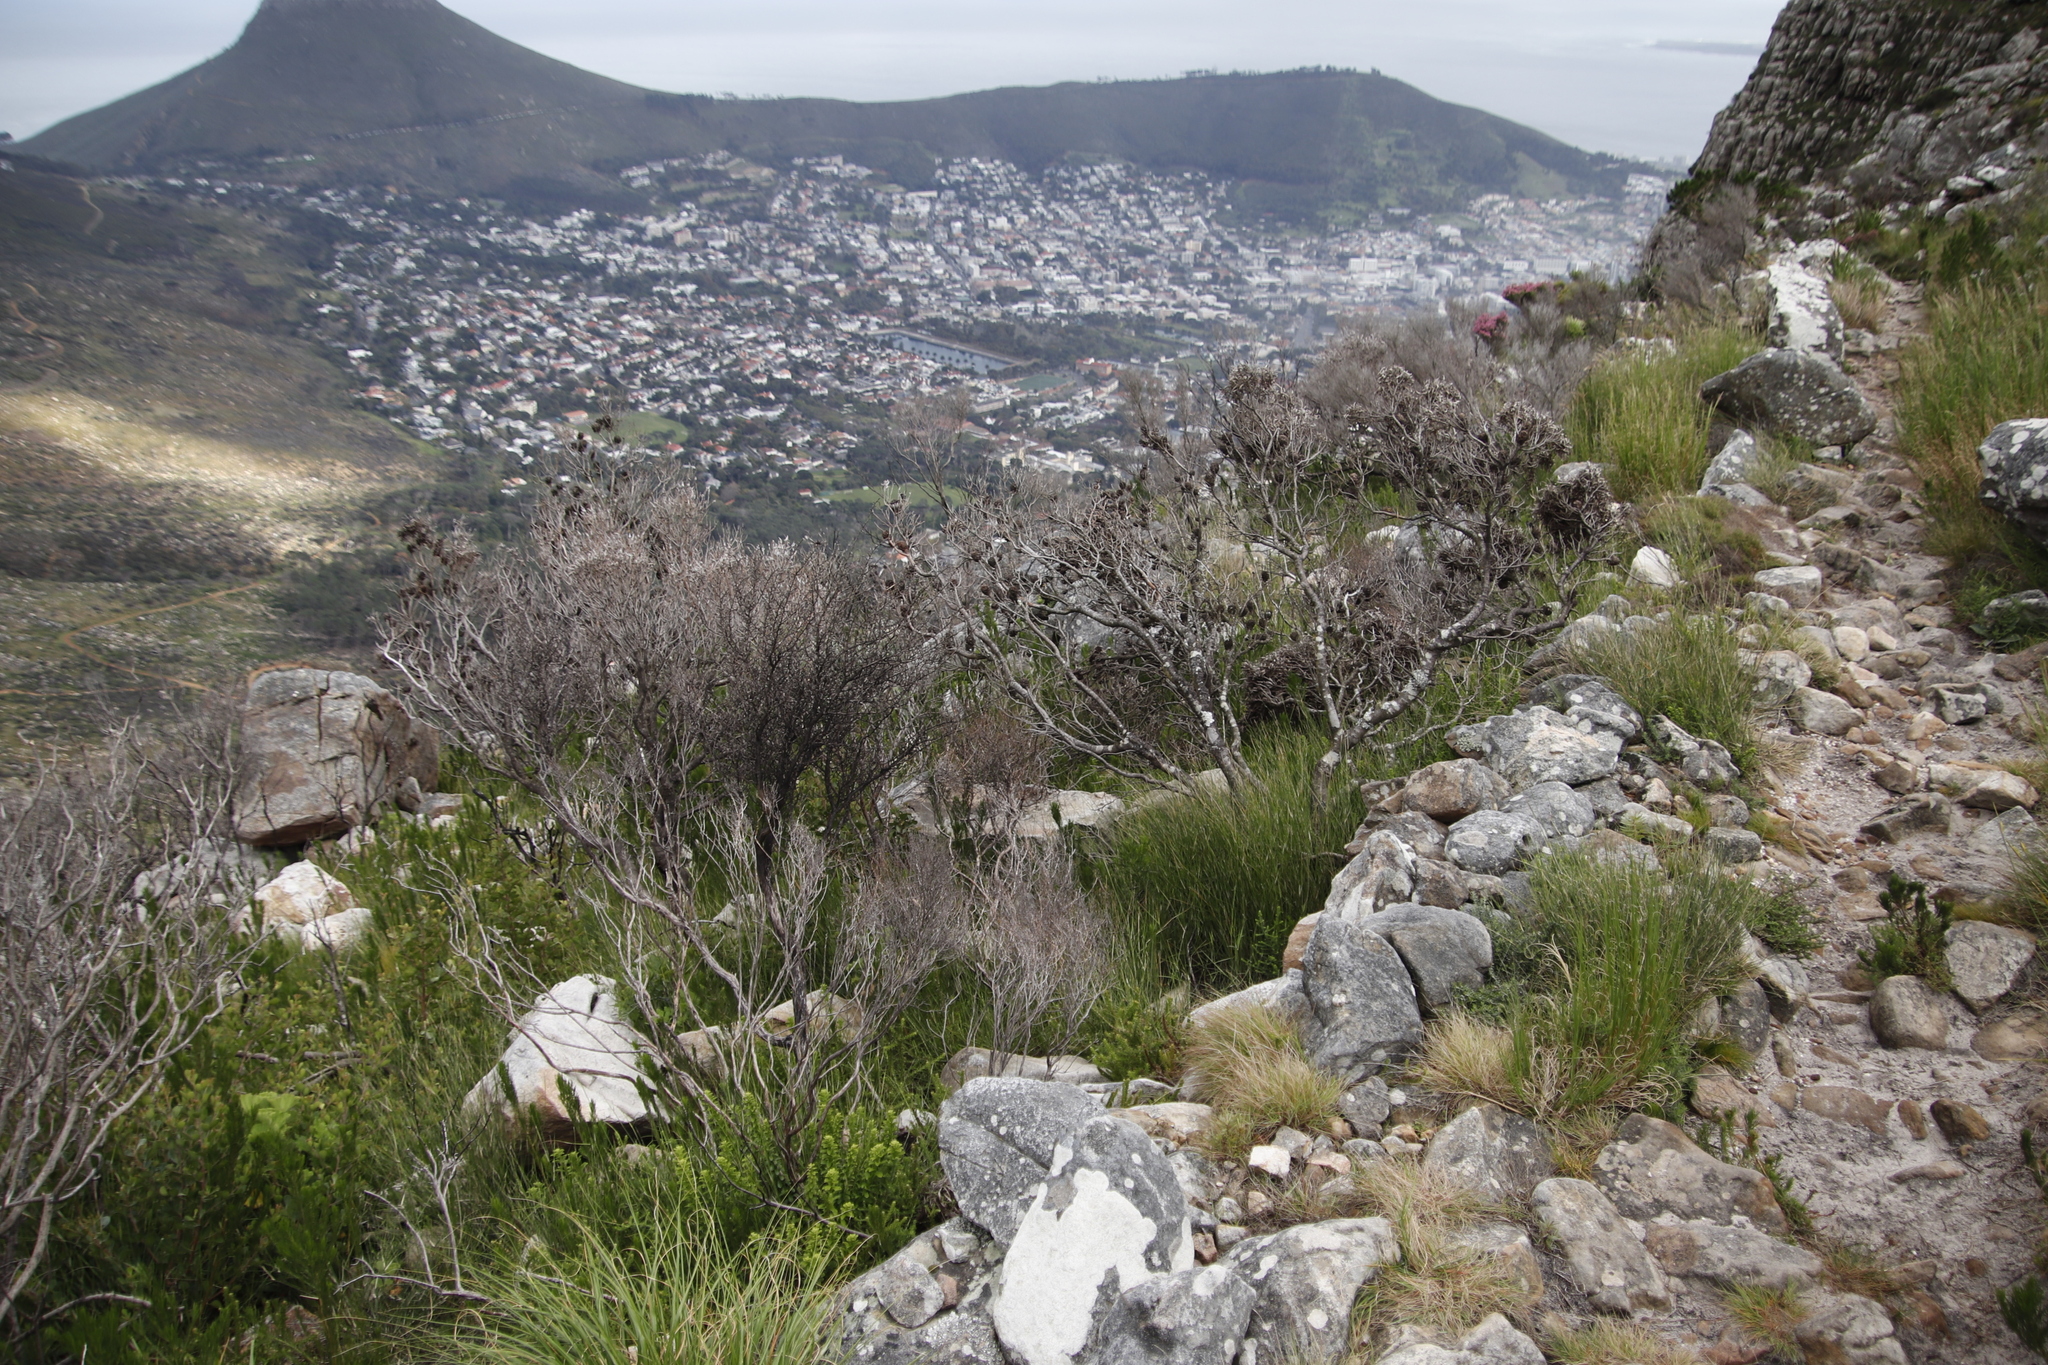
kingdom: Plantae
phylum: Tracheophyta
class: Magnoliopsida
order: Proteales
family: Proteaceae
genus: Leucadendron
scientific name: Leucadendron xanthoconus
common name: Sickle-leaf conebush
